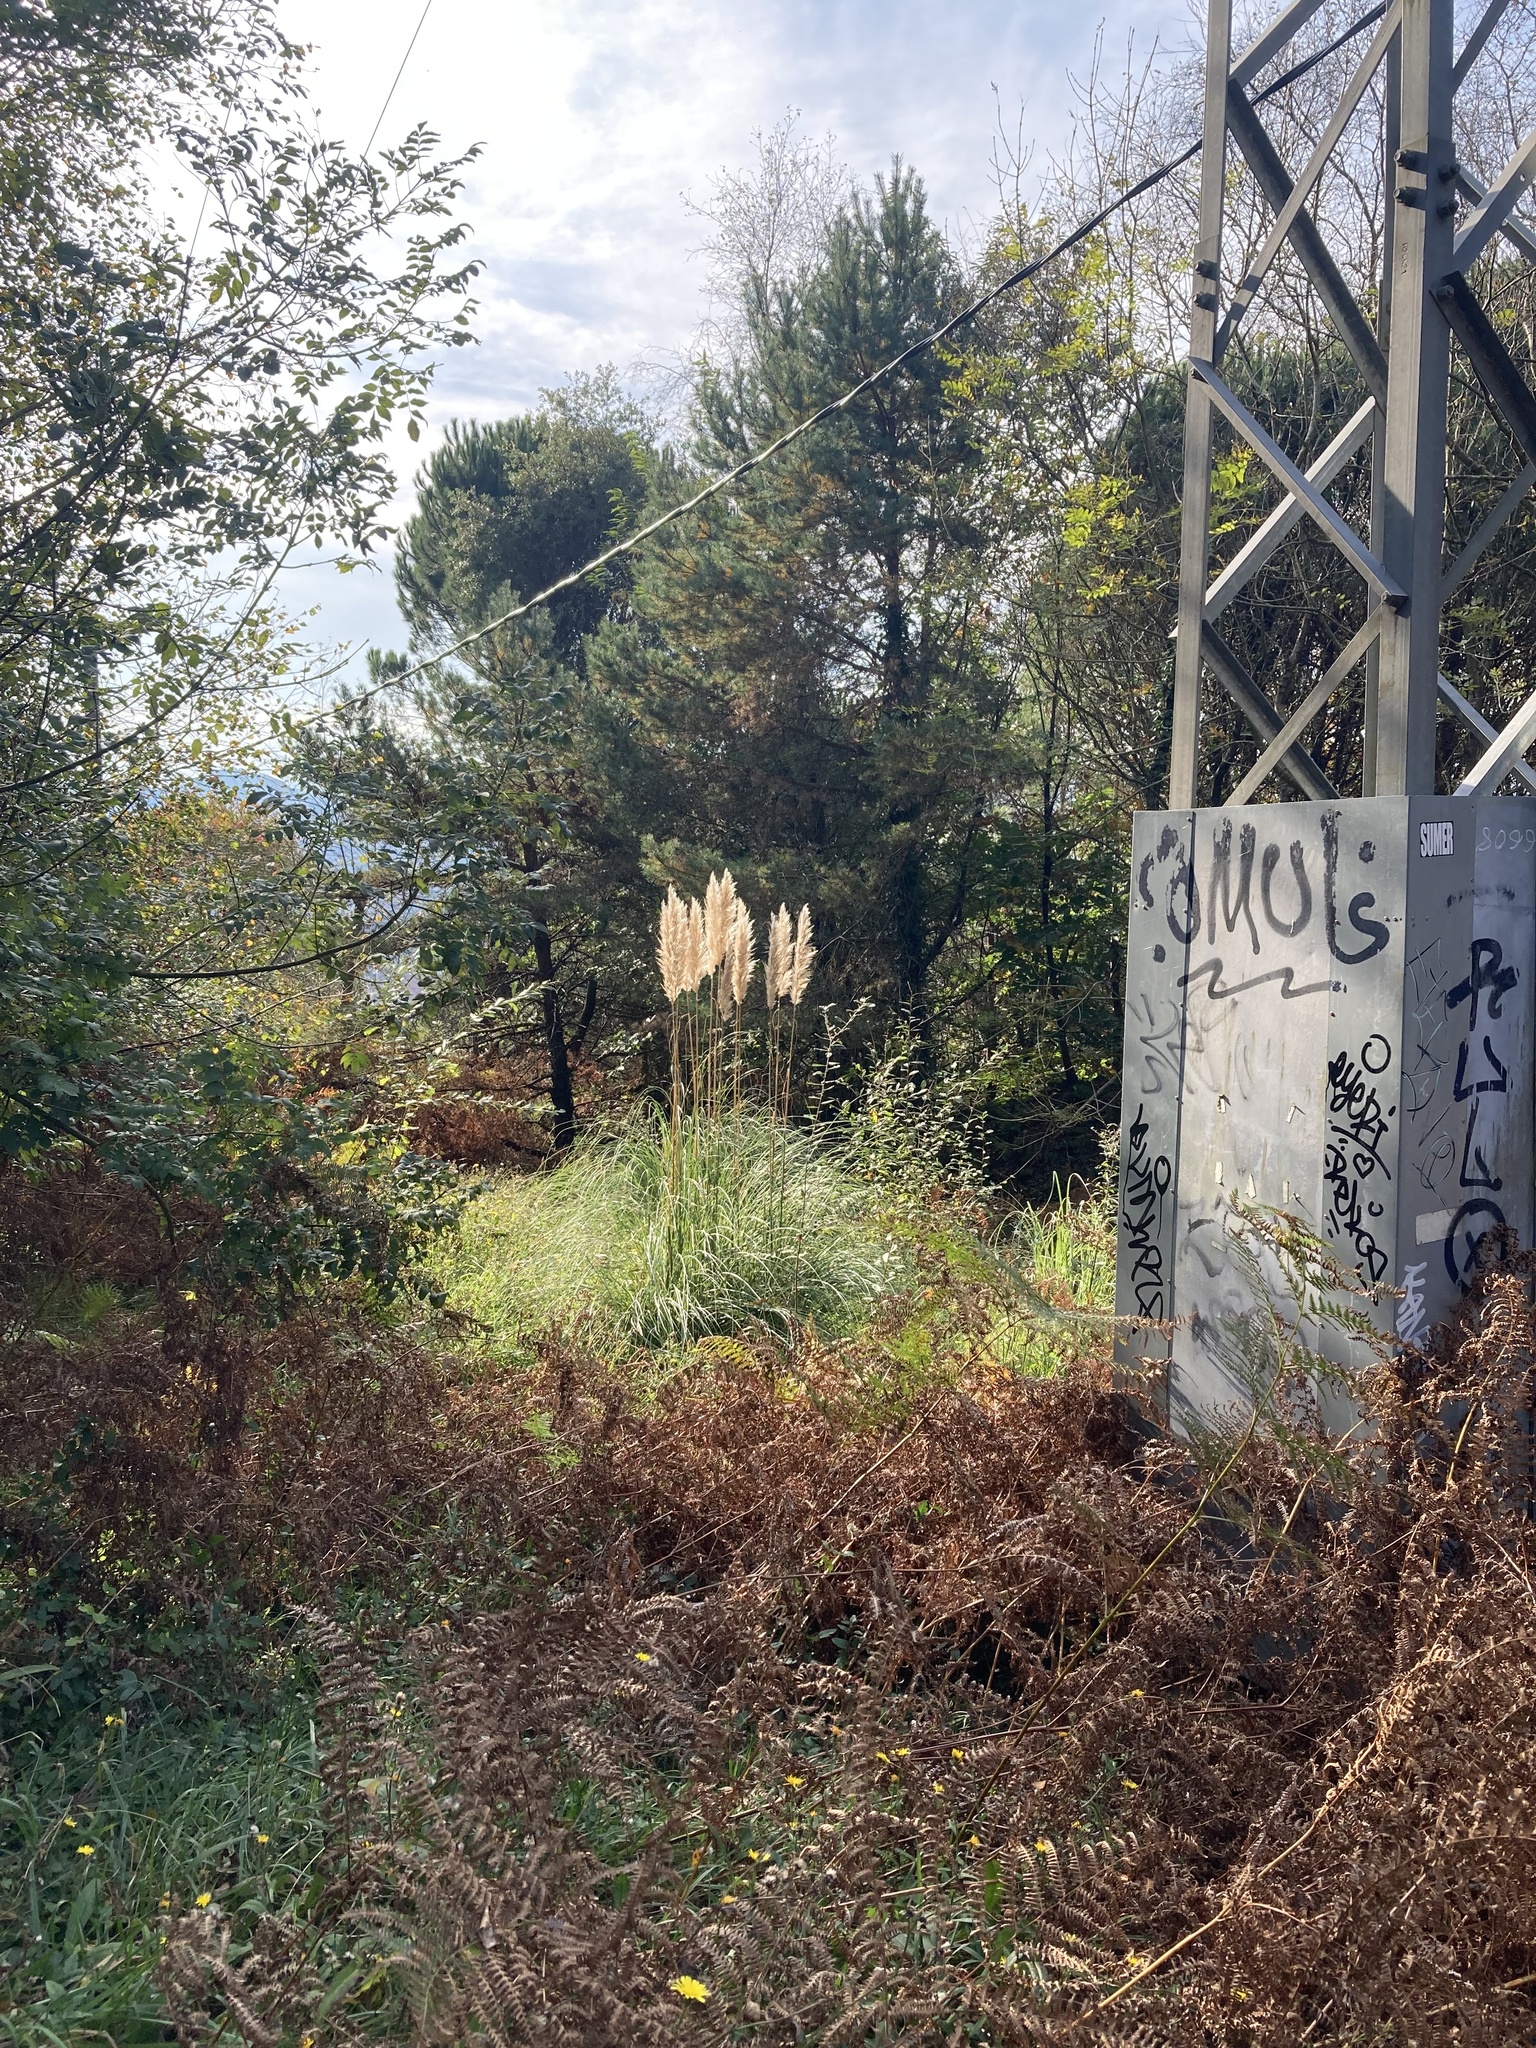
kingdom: Plantae
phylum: Tracheophyta
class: Liliopsida
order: Poales
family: Poaceae
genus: Cortaderia
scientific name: Cortaderia selloana
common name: Uruguayan pampas grass
